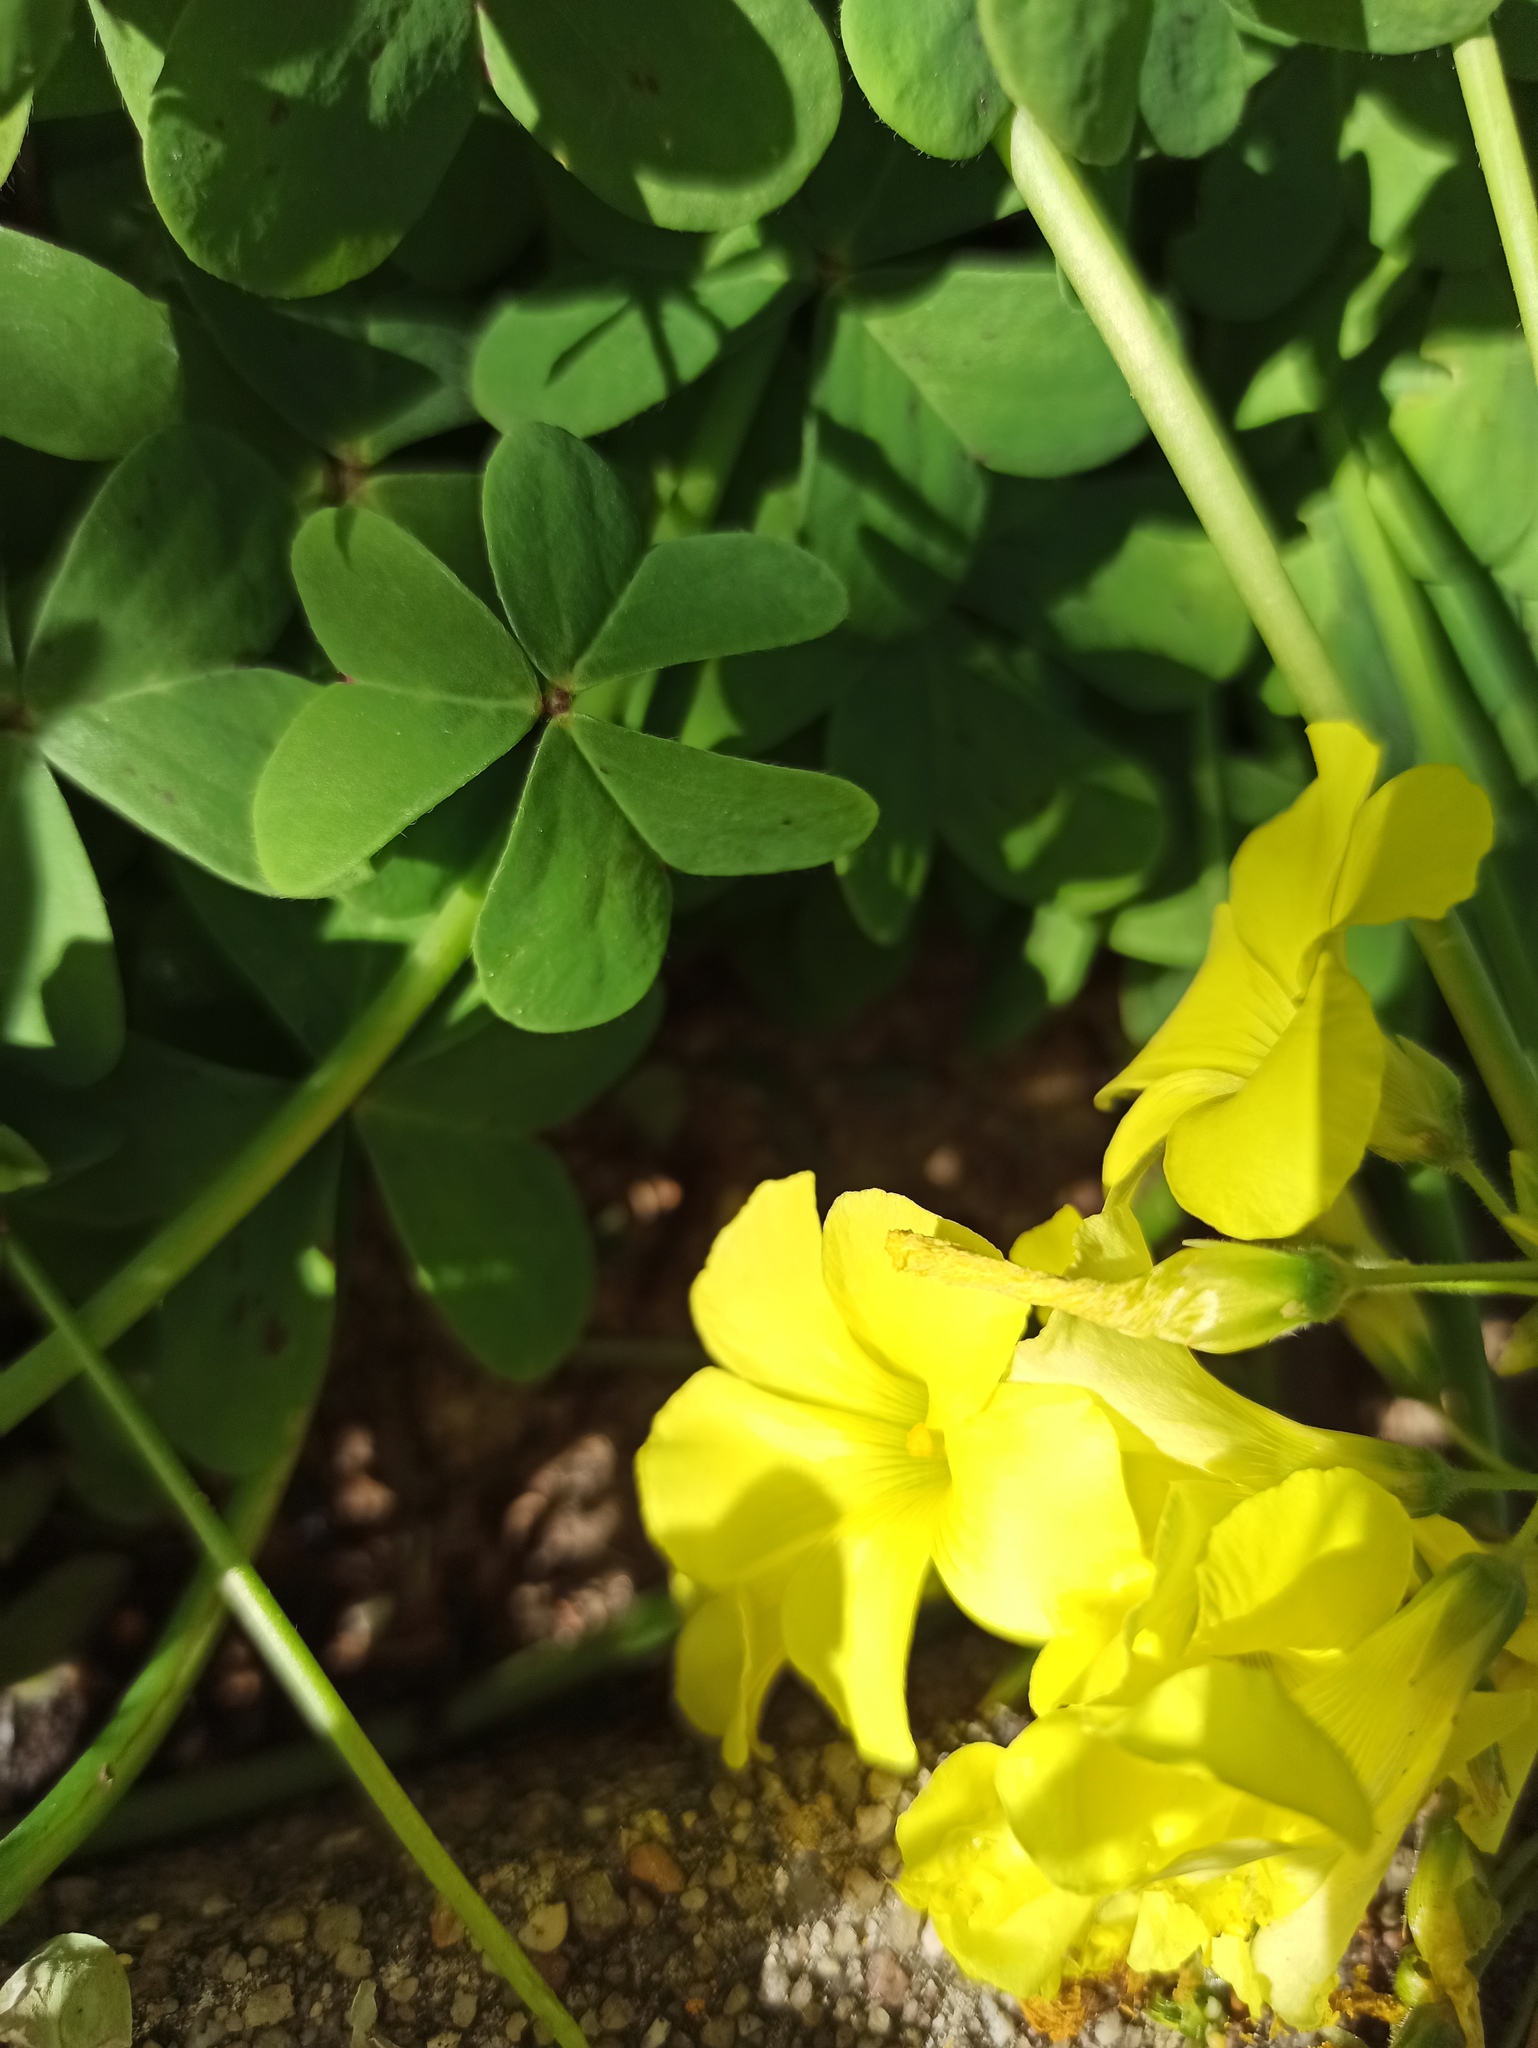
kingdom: Plantae
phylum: Tracheophyta
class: Magnoliopsida
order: Oxalidales
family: Oxalidaceae
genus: Oxalis
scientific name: Oxalis pes-caprae
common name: Bermuda-buttercup
